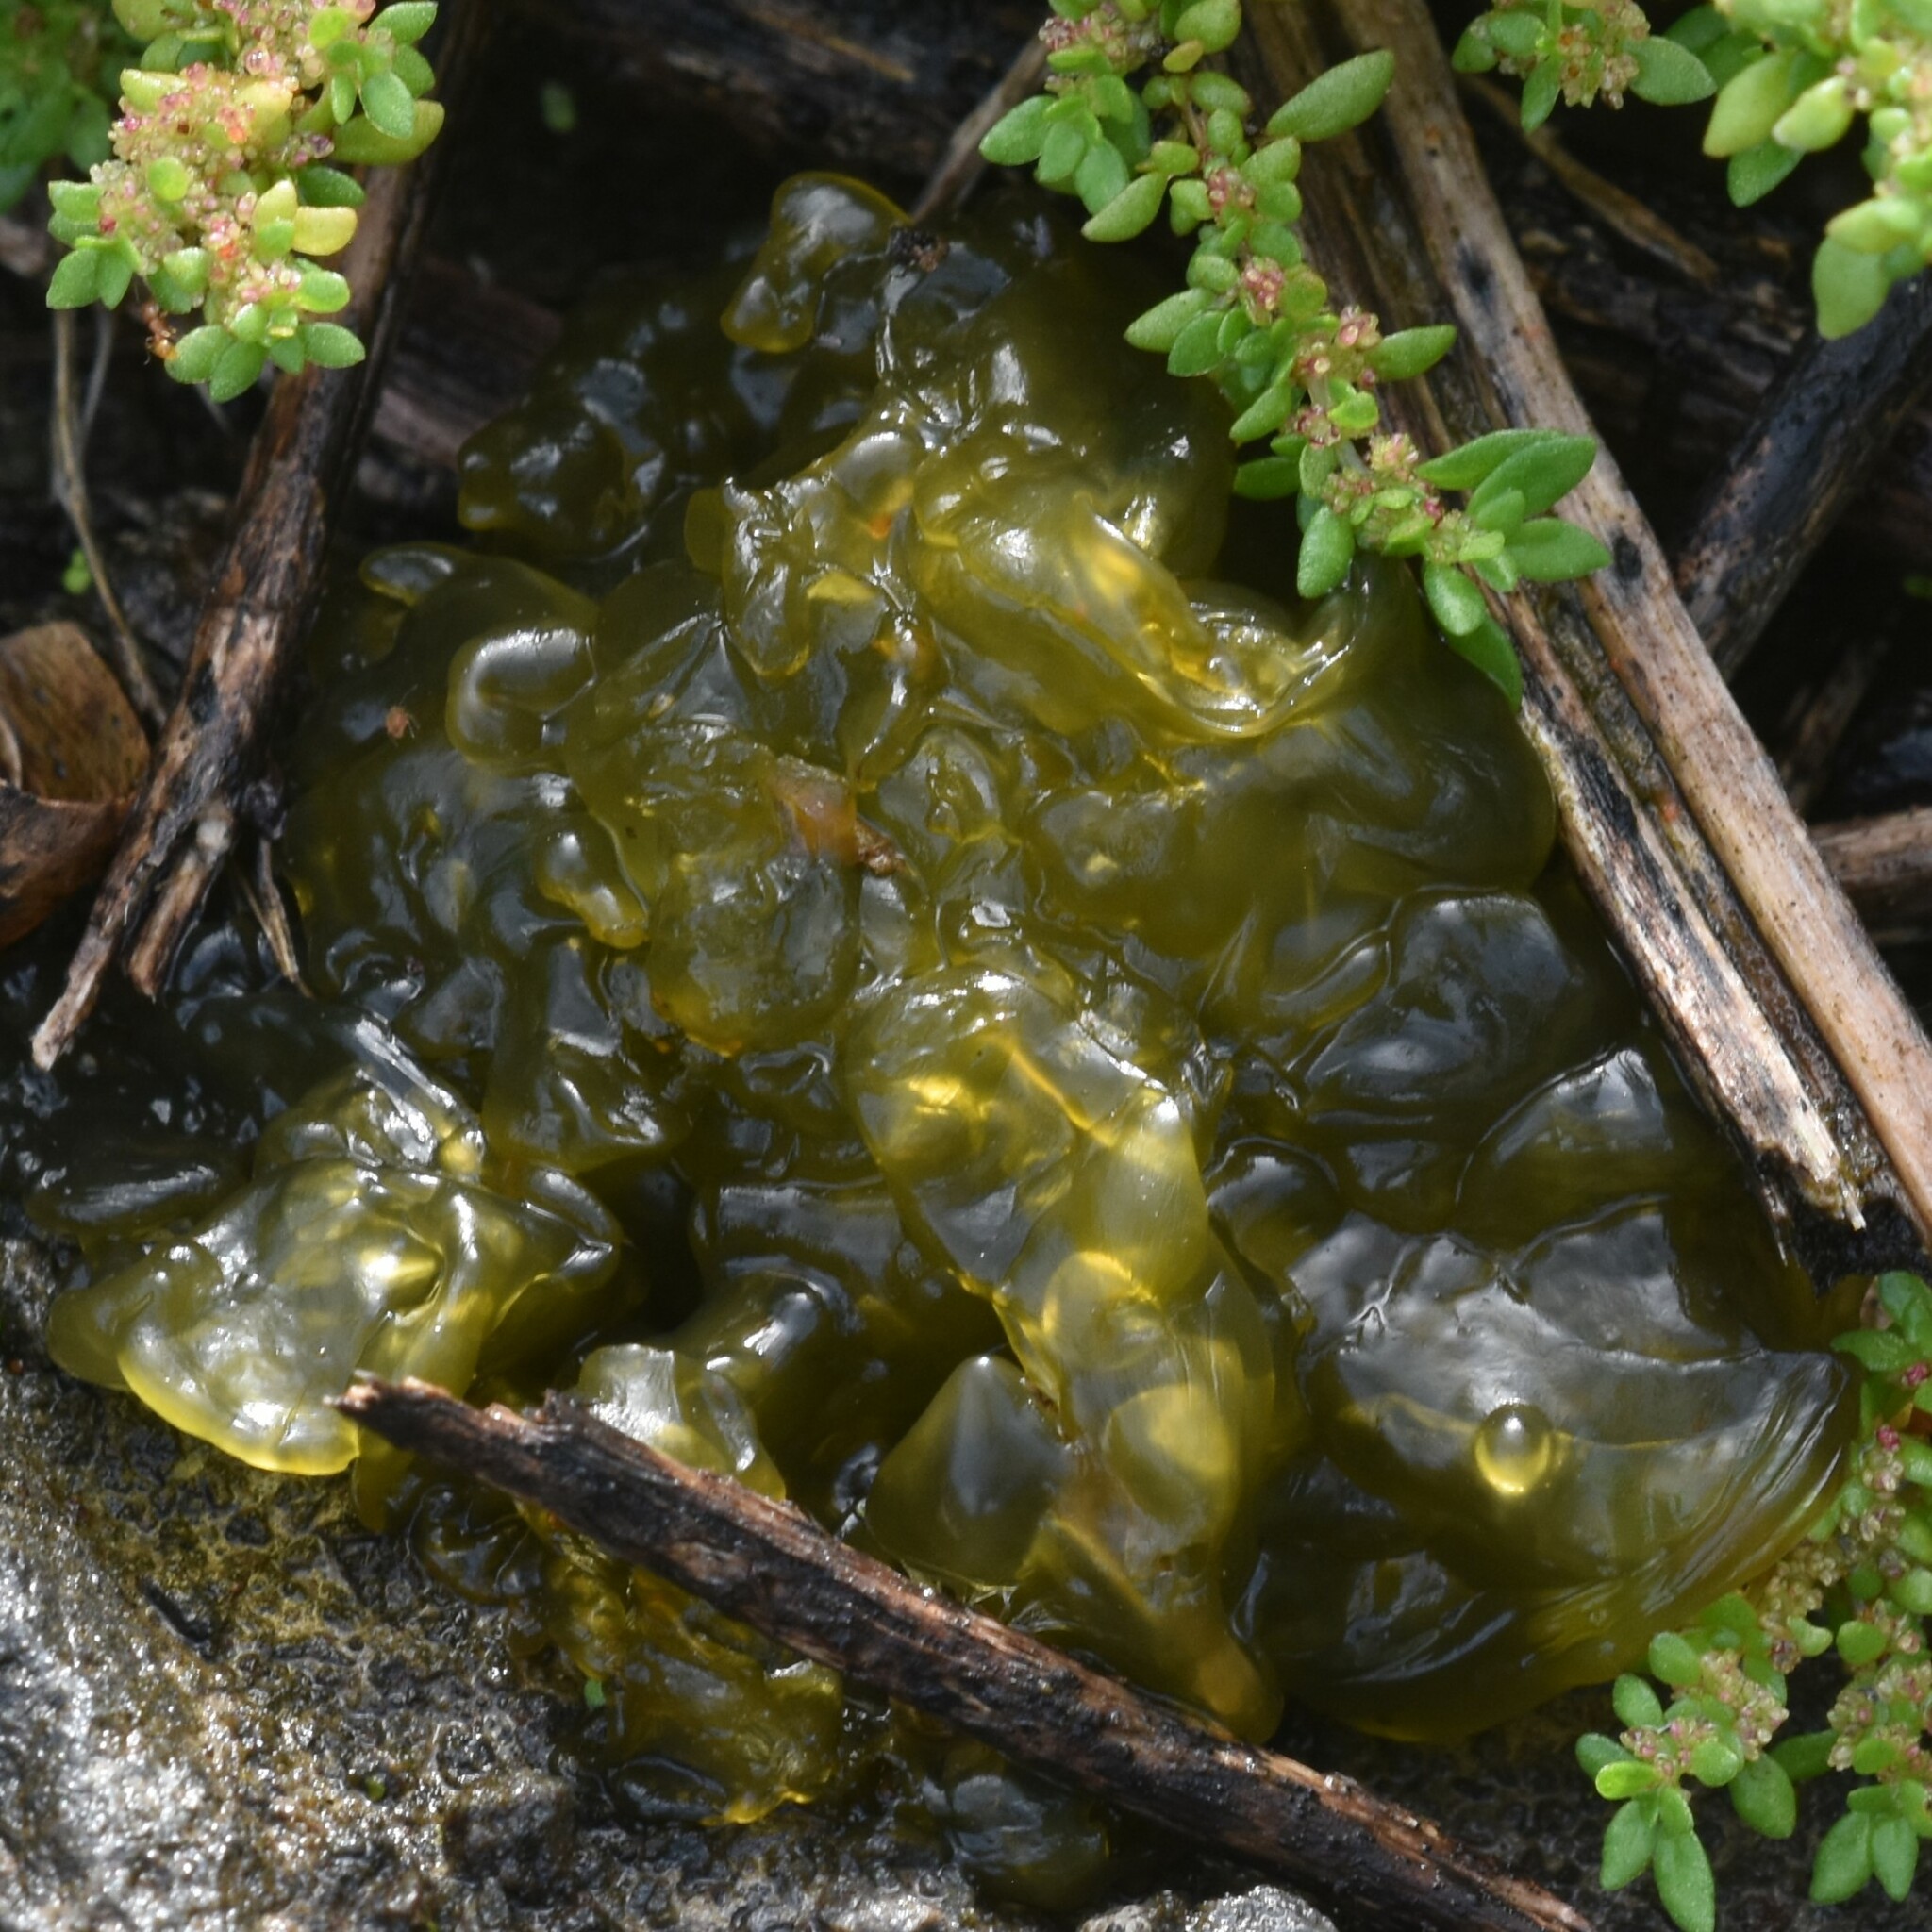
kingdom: Bacteria
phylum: Cyanobacteria
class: Cyanobacteriia
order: Cyanobacteriales
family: Nostocaceae
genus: Nostoc
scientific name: Nostoc commune
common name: Star jelly
